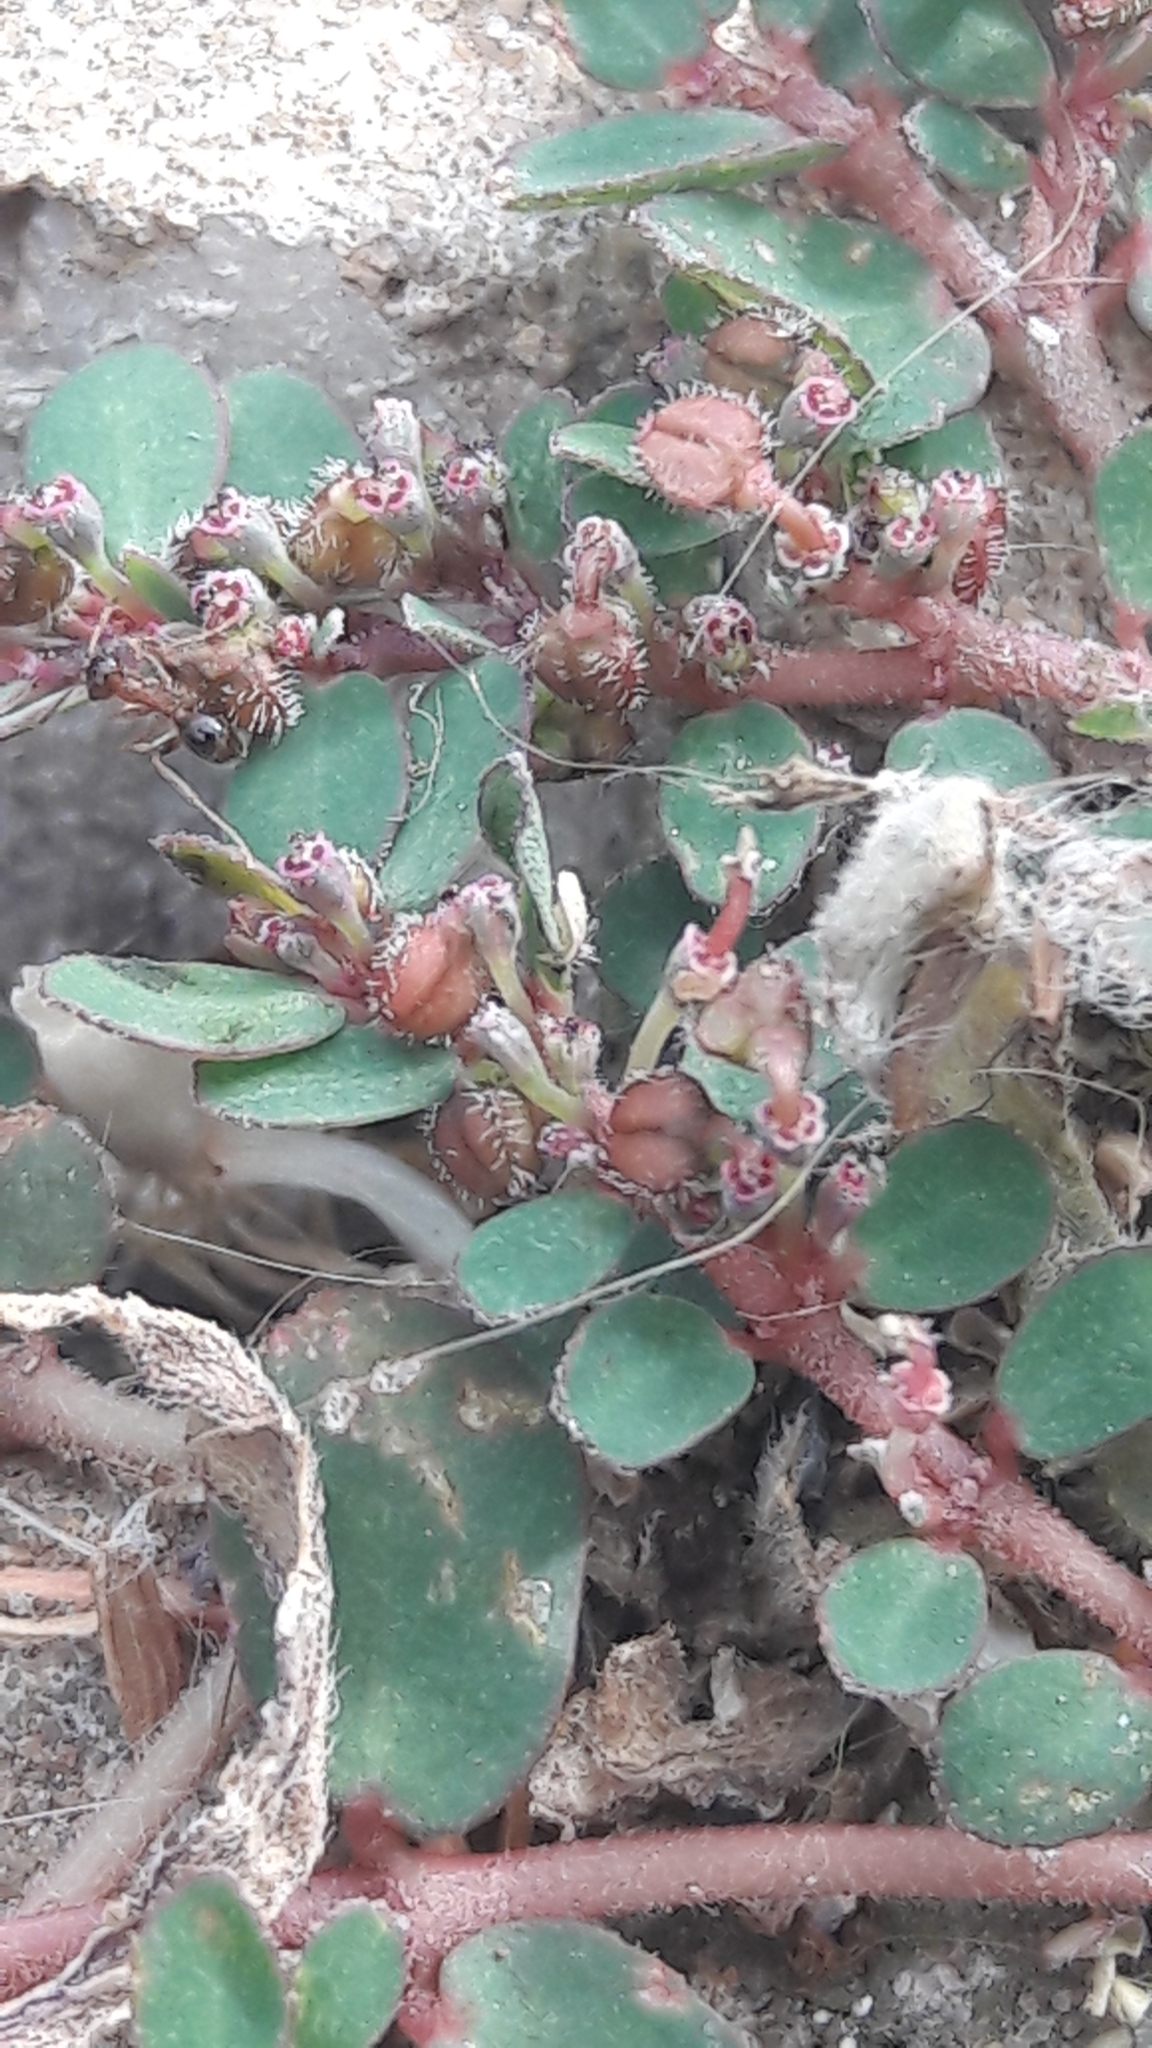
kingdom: Plantae
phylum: Tracheophyta
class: Magnoliopsida
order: Malpighiales
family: Euphorbiaceae
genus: Euphorbia
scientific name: Euphorbia prostrata
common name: Prostrate sandmat
